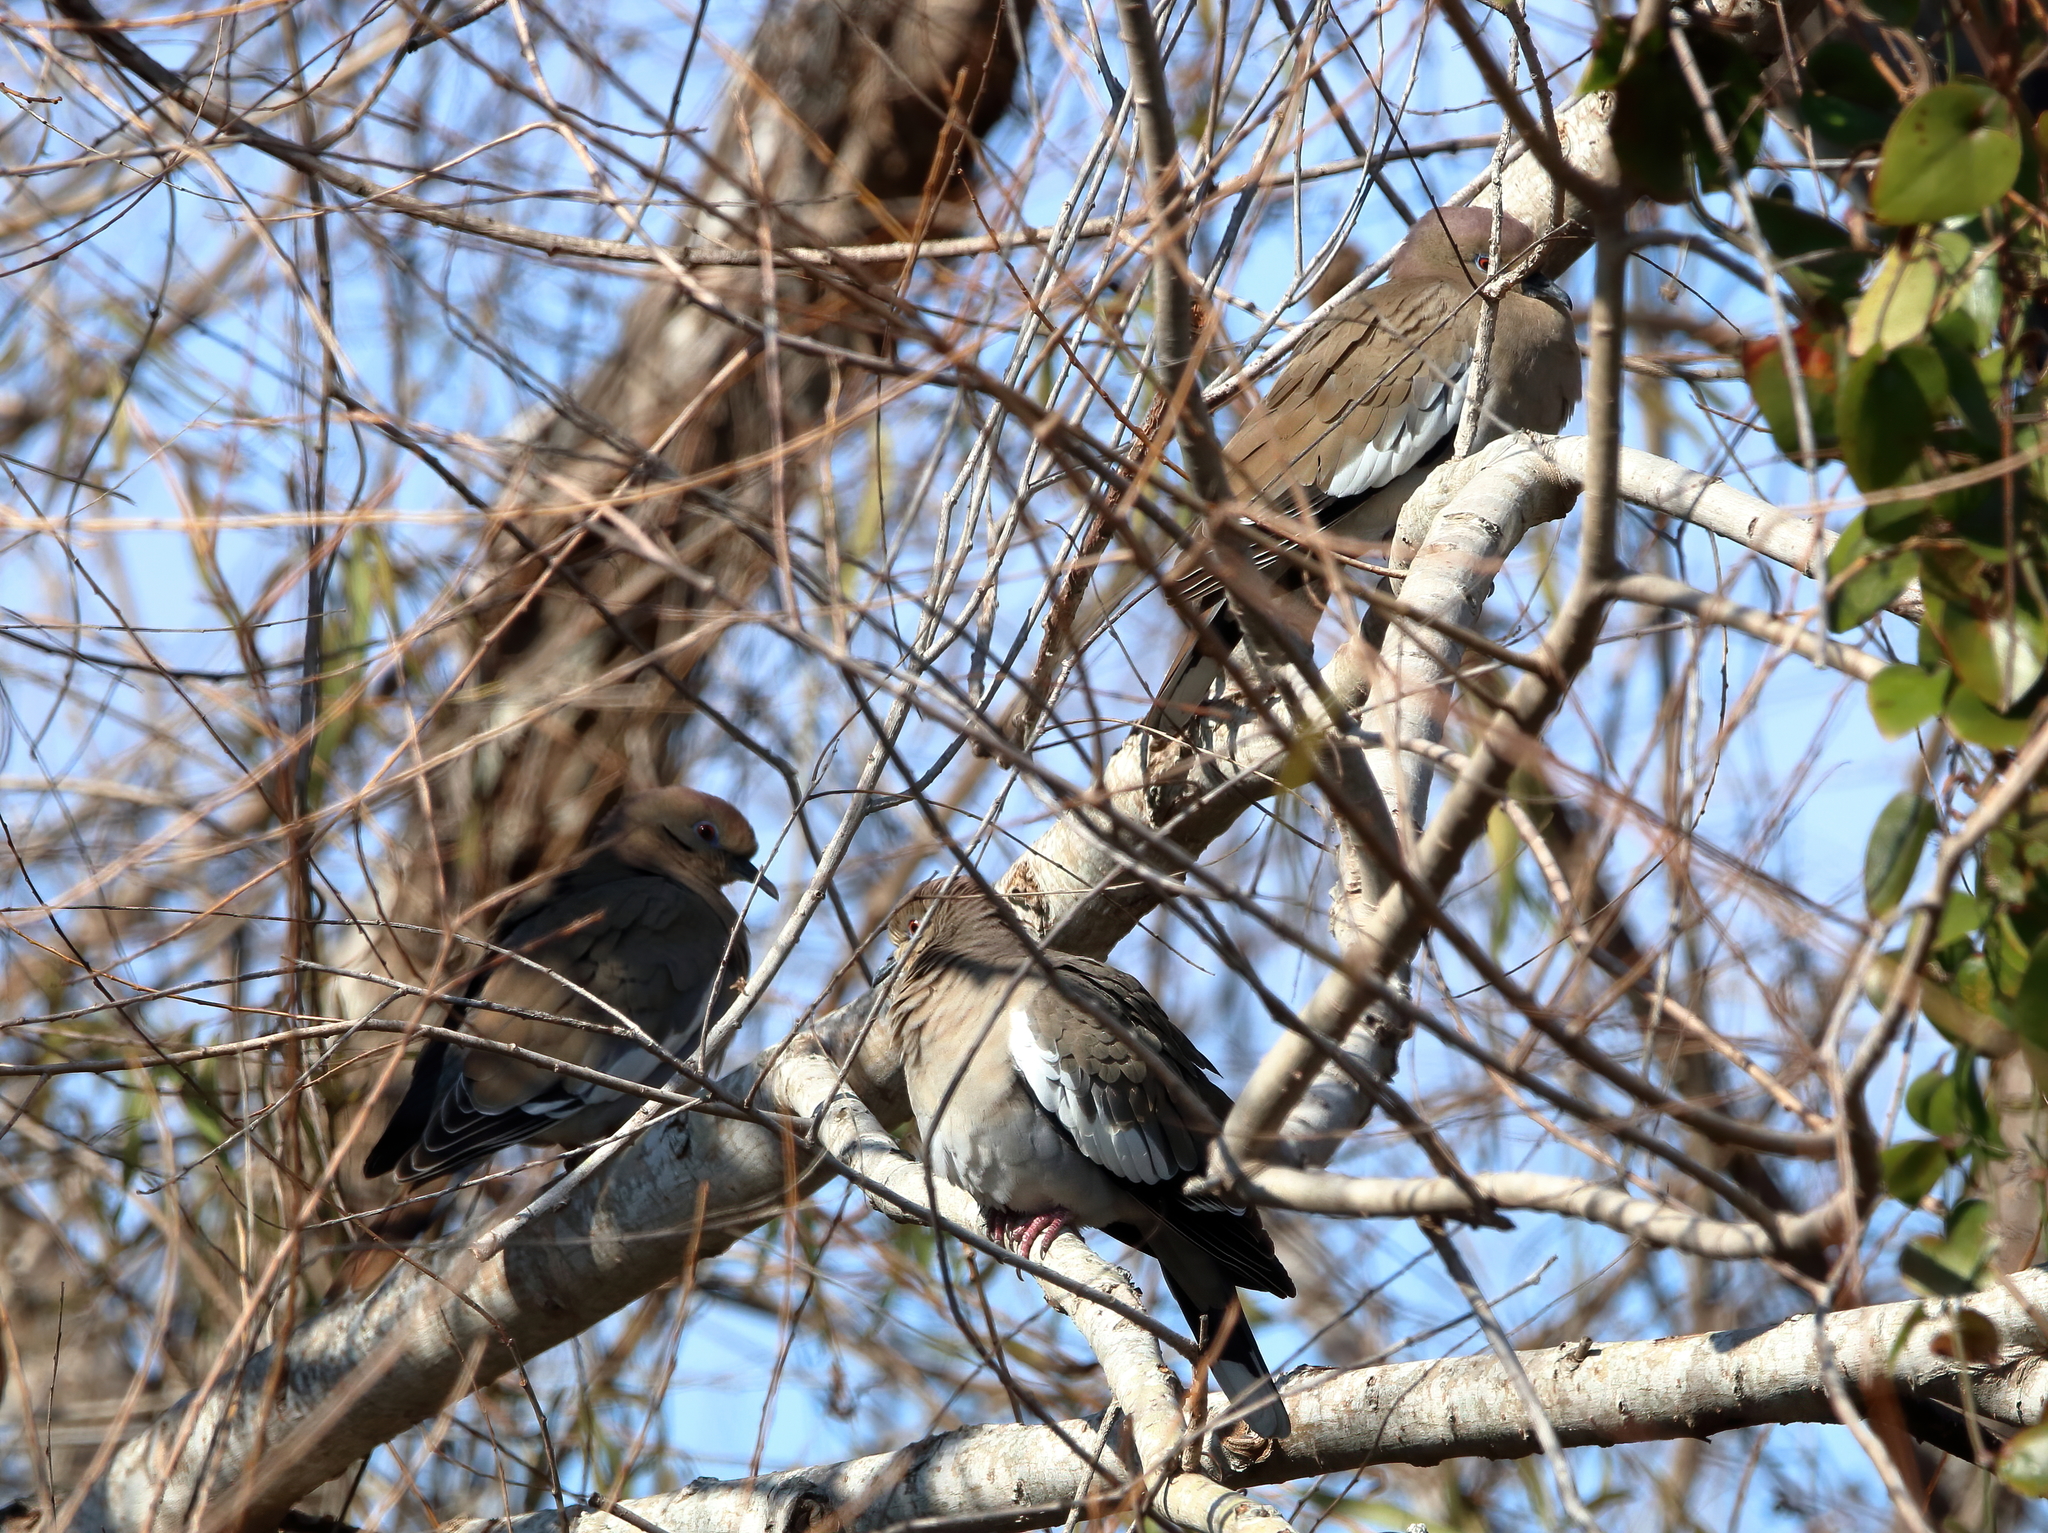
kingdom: Animalia
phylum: Chordata
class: Aves
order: Columbiformes
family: Columbidae
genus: Zenaida
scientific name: Zenaida asiatica
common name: White-winged dove
